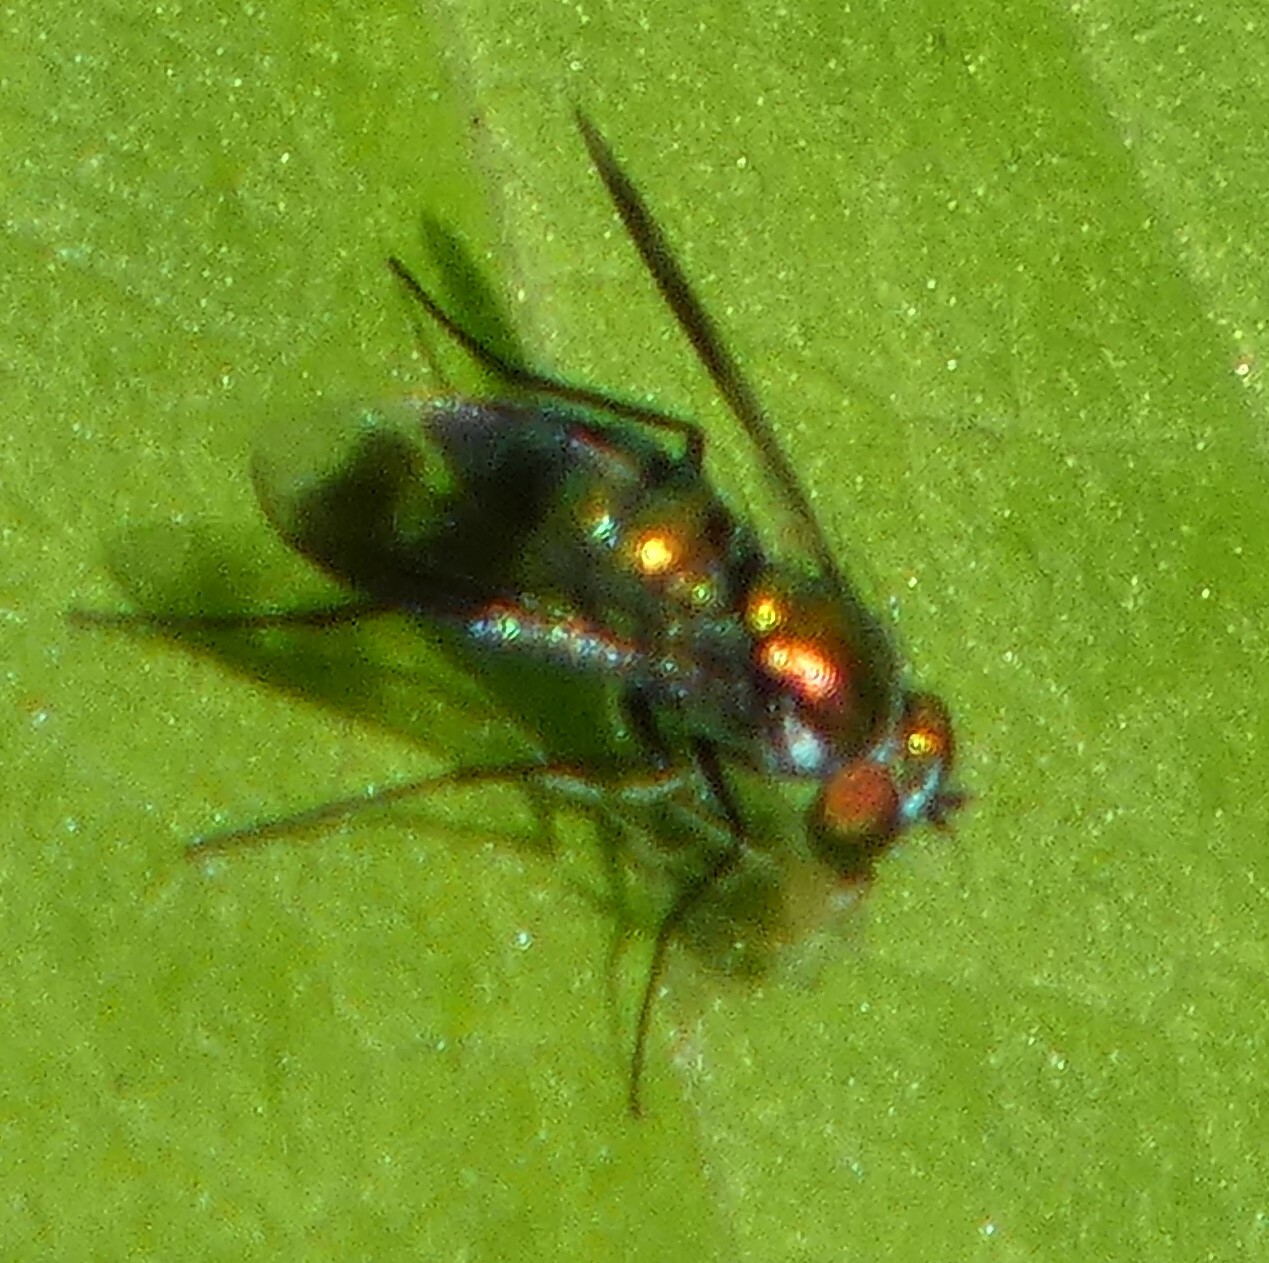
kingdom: Animalia
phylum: Arthropoda
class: Insecta
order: Diptera
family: Dolichopodidae
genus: Condylostylus
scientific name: Condylostylus patibulatus
